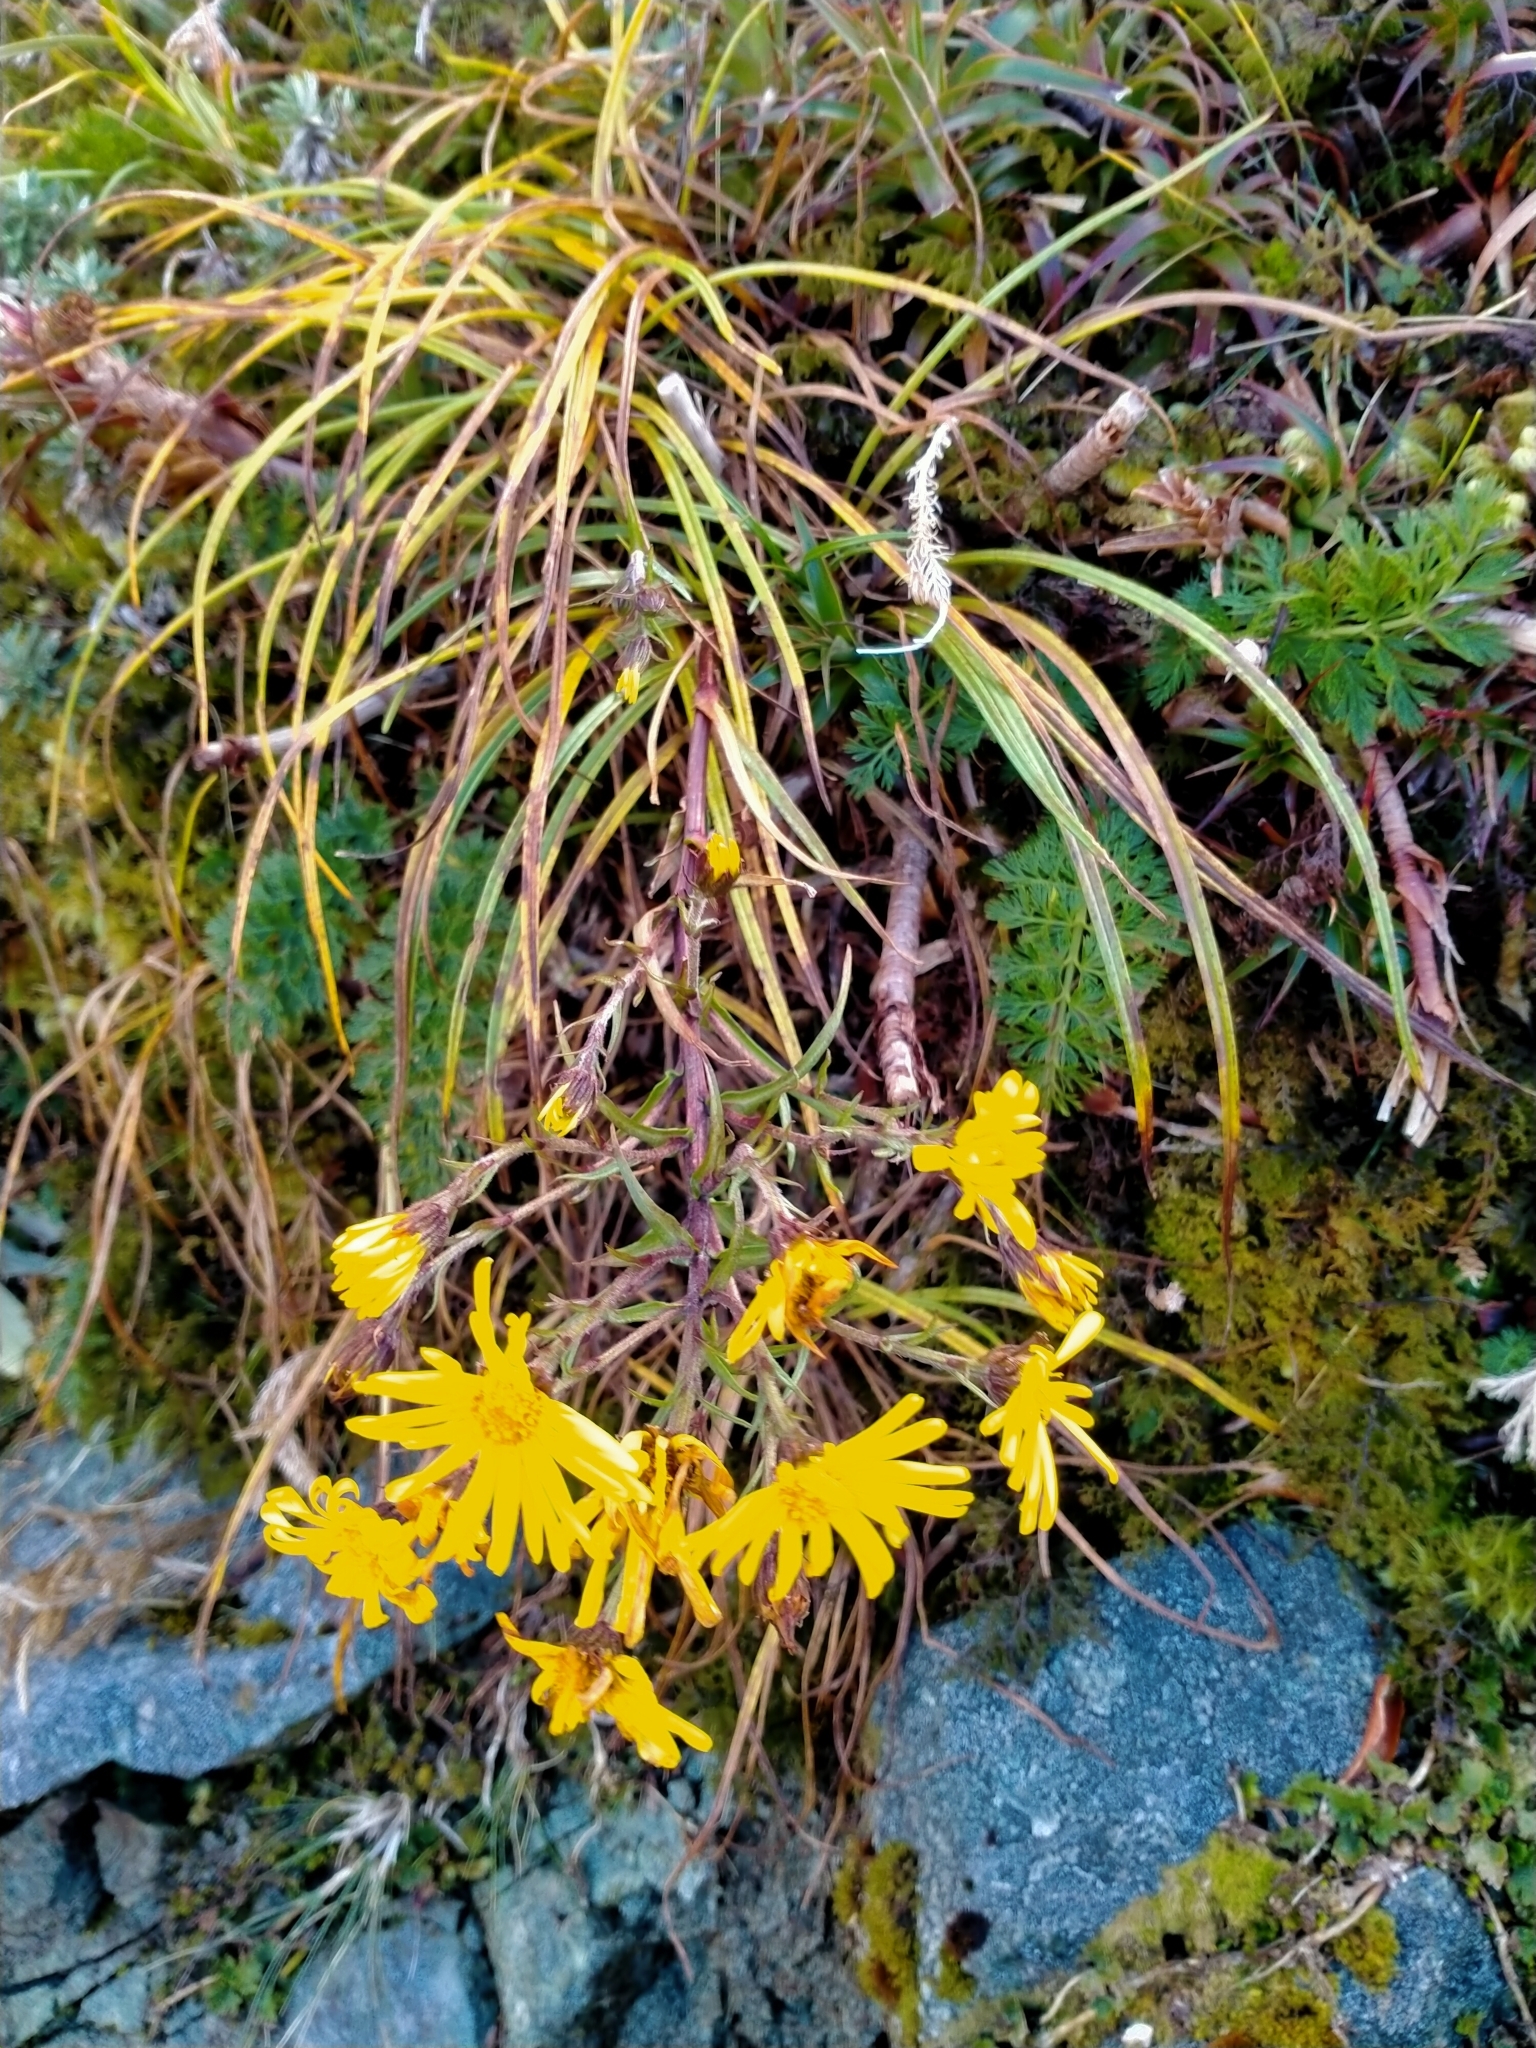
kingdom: Plantae
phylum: Tracheophyta
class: Magnoliopsida
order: Asterales
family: Asteraceae
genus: Dolichoglottis
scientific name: Dolichoglottis lyallii
